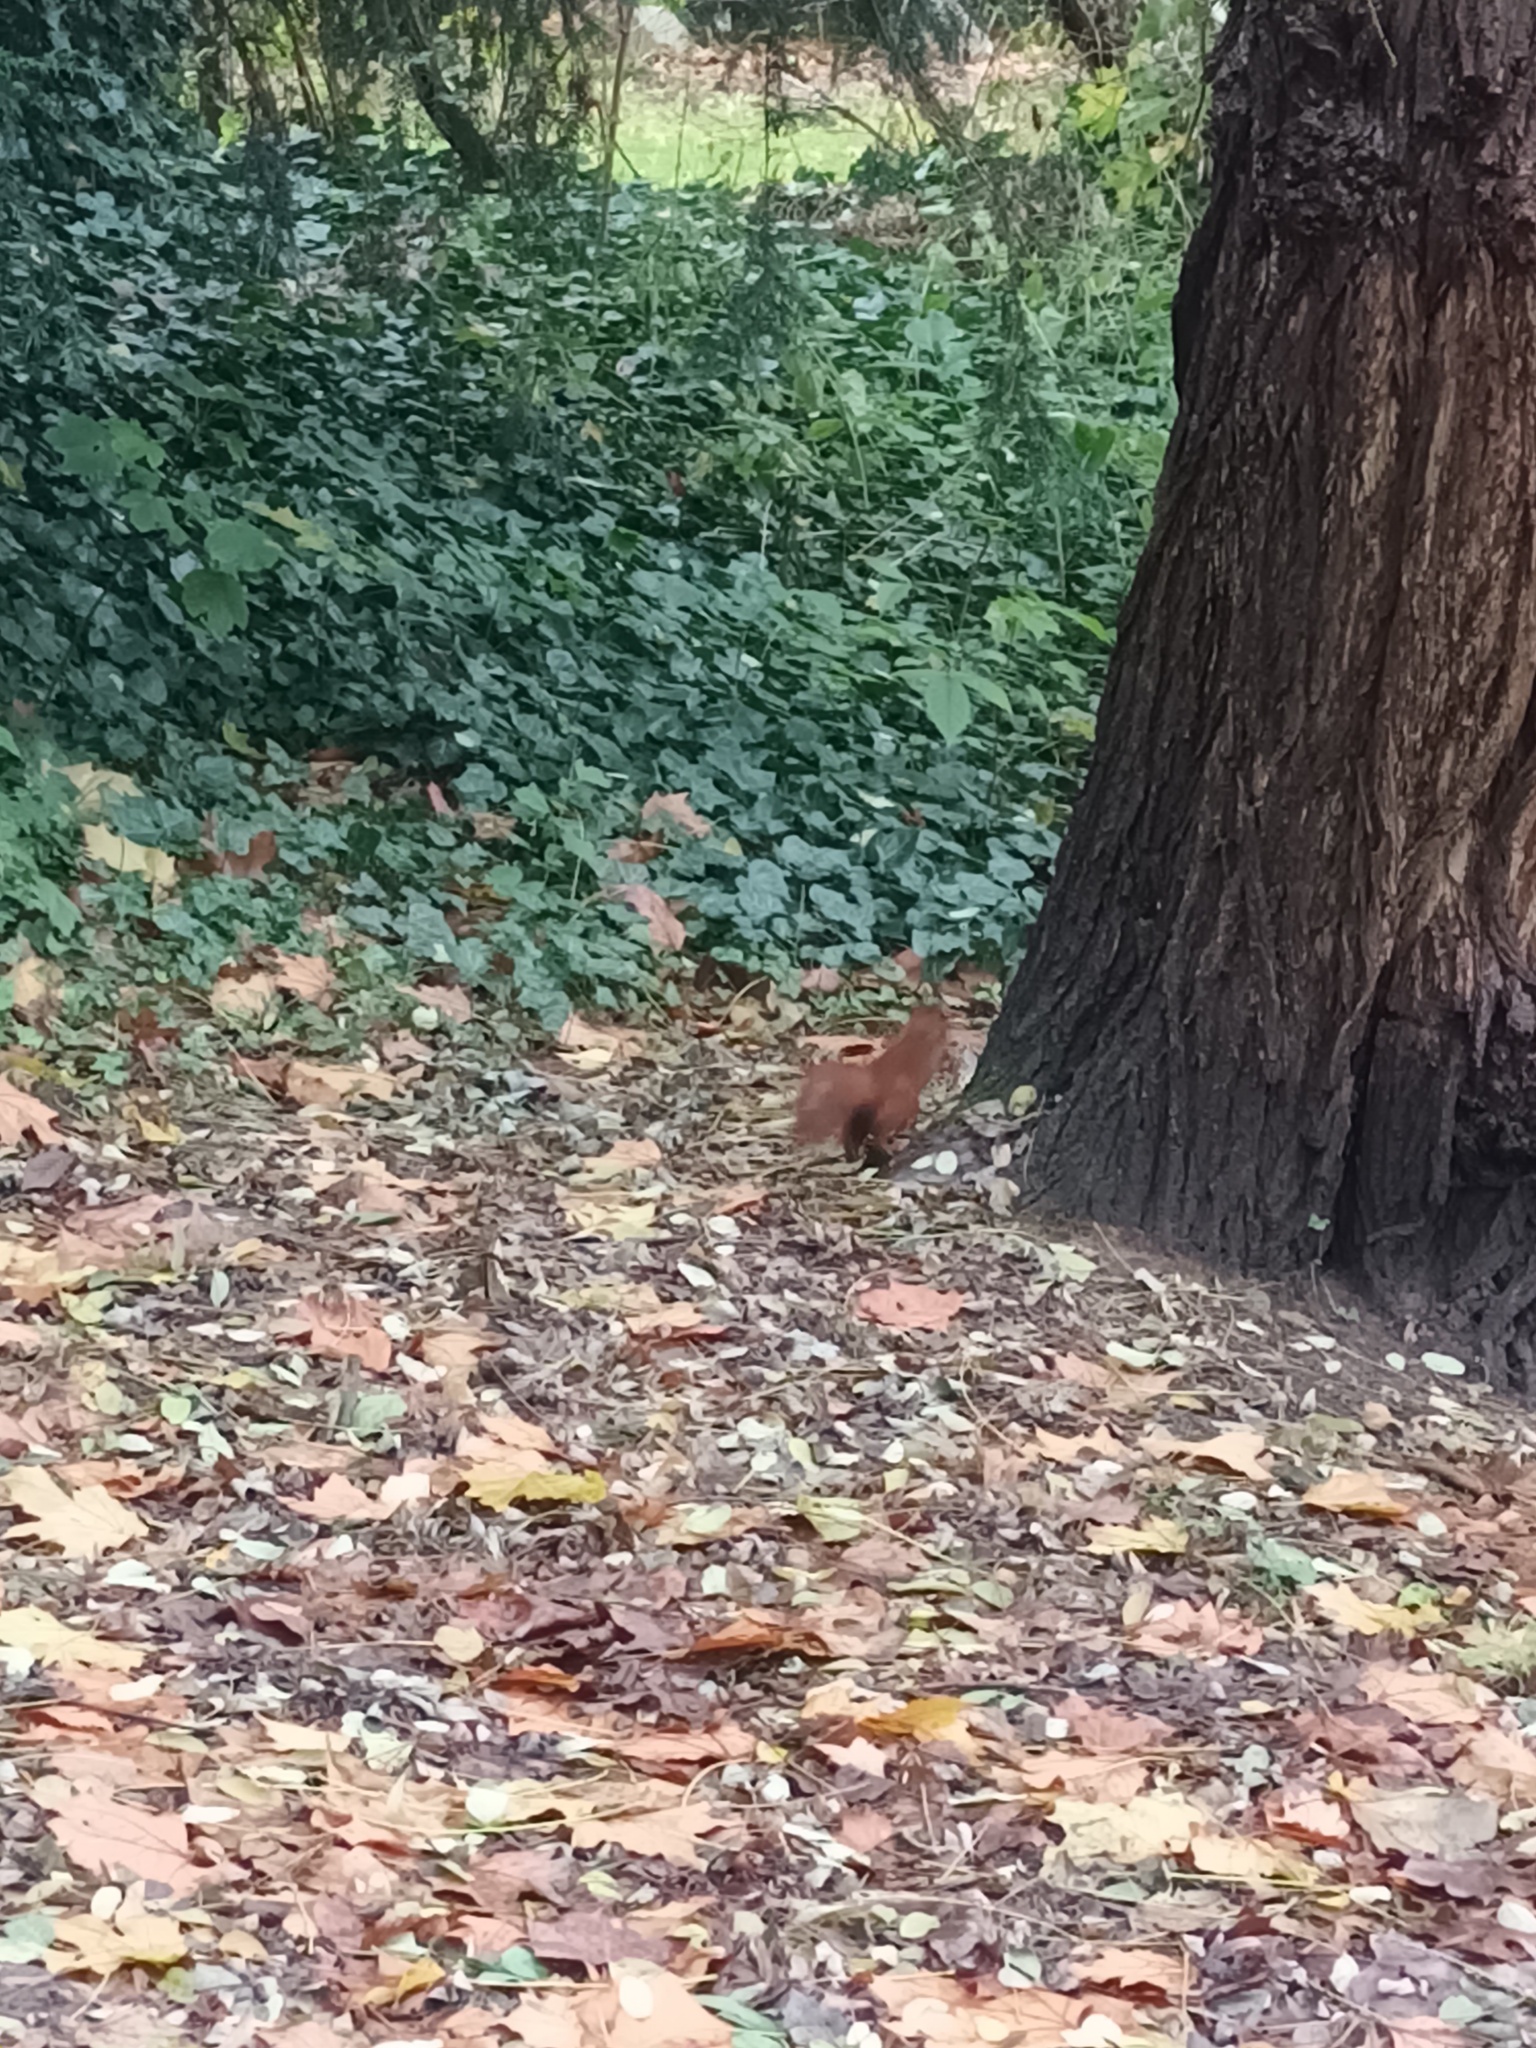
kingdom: Animalia
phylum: Chordata
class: Mammalia
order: Rodentia
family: Sciuridae
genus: Sciurus
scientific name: Sciurus vulgaris
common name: Eurasian red squirrel
